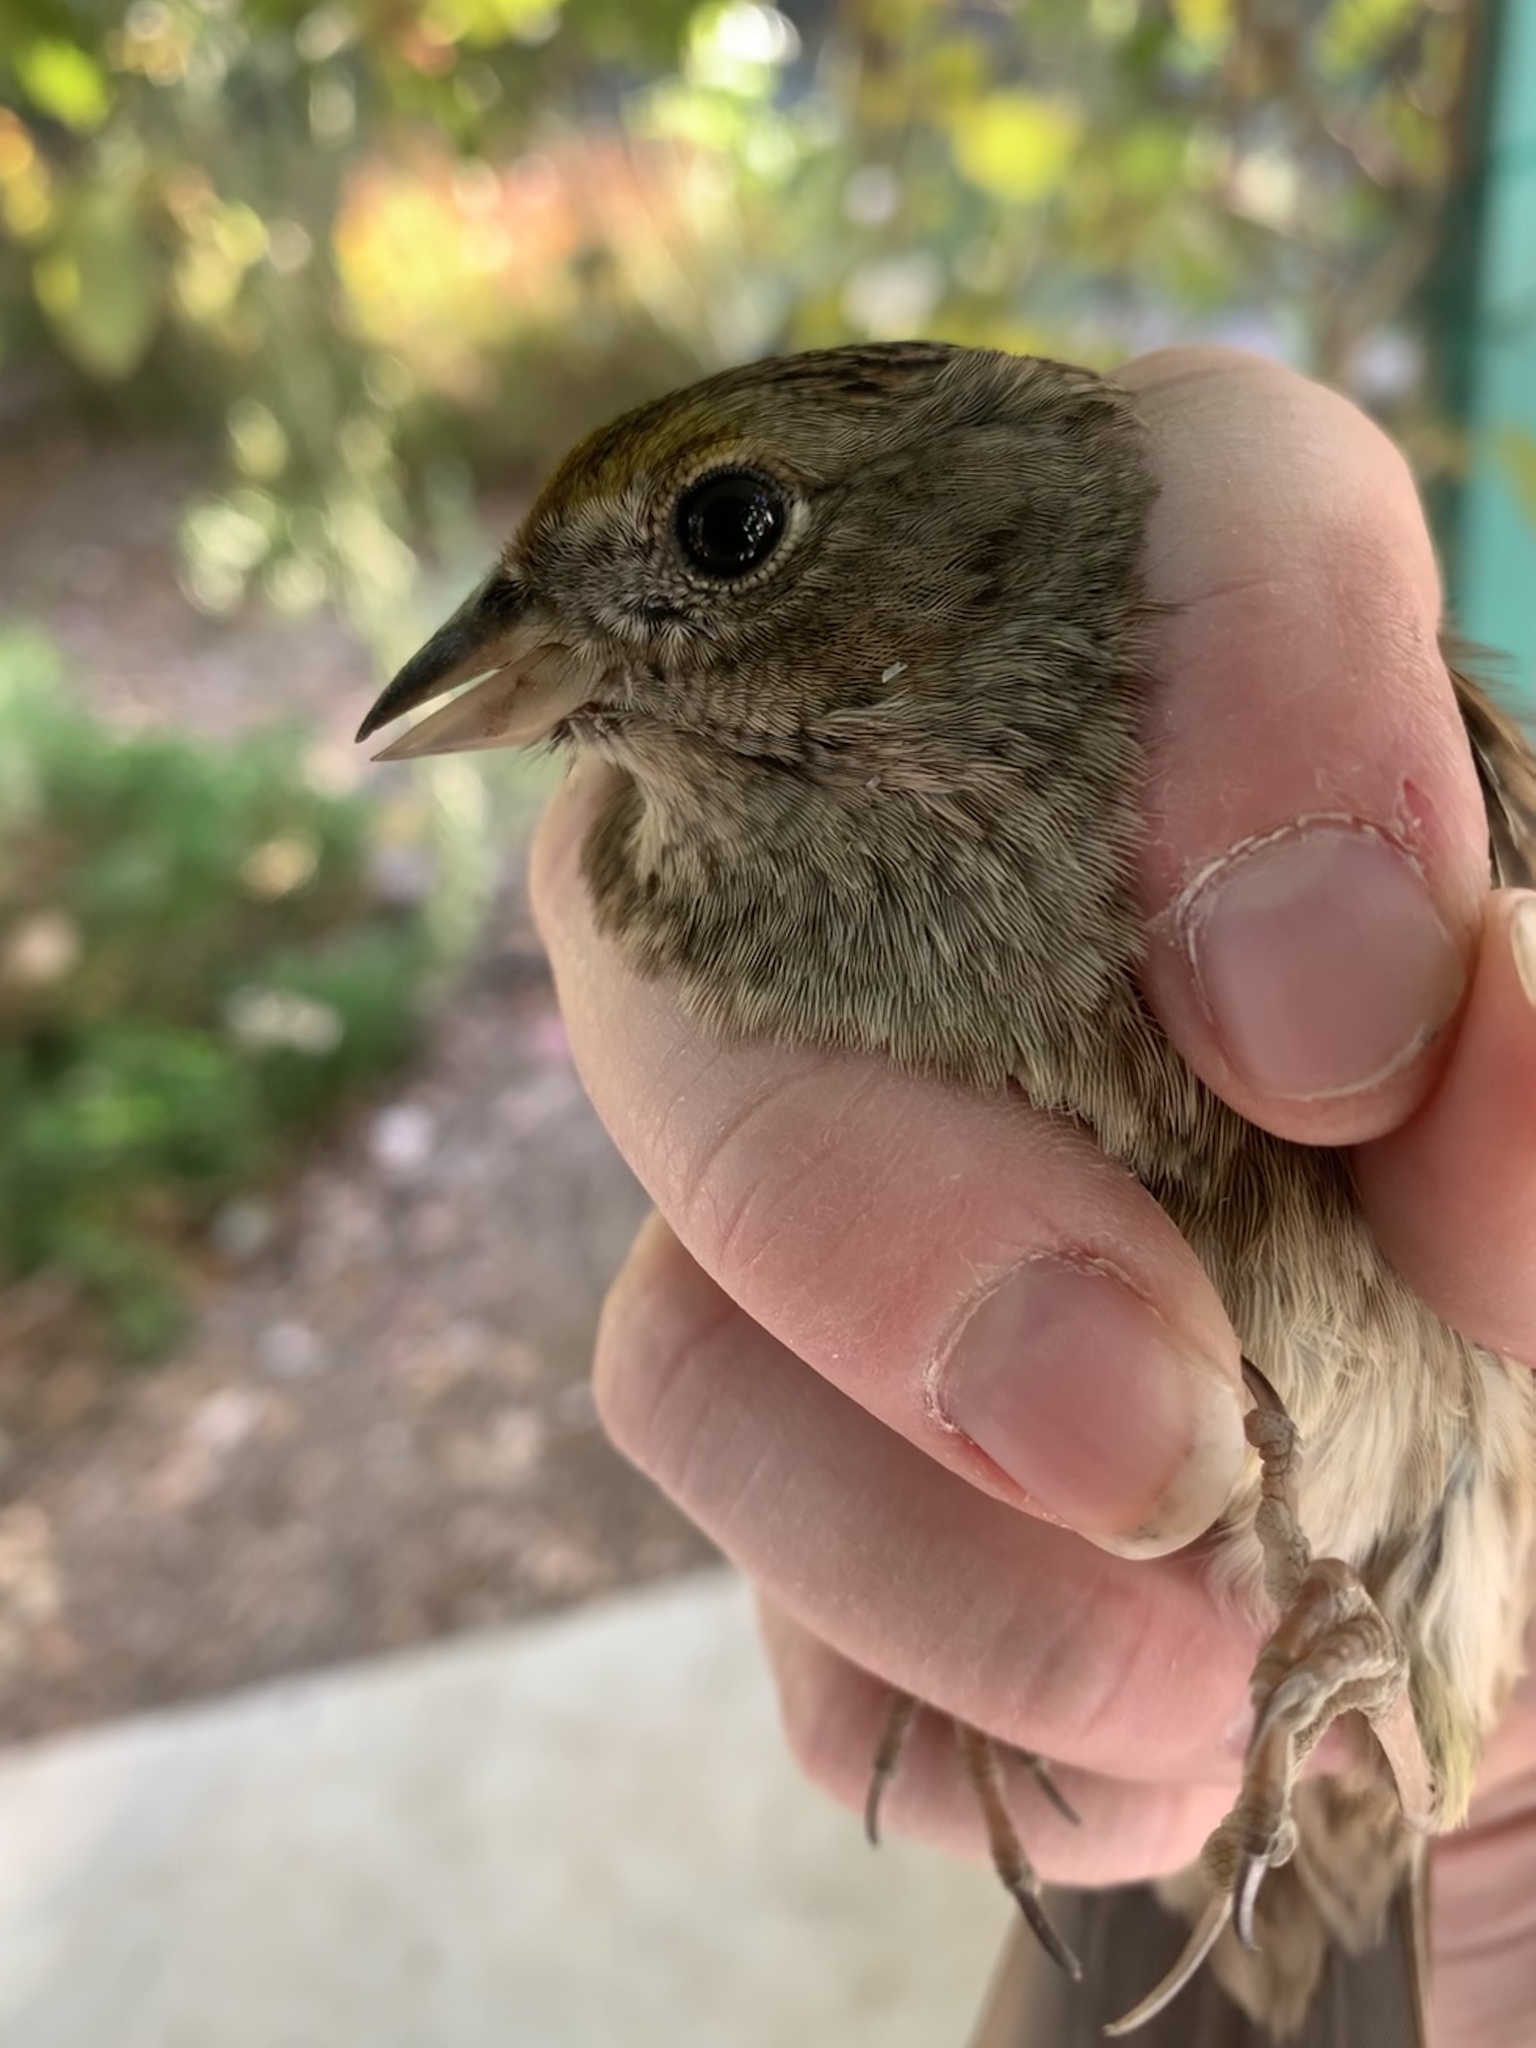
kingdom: Animalia
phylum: Chordata
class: Aves
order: Passeriformes
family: Passerellidae
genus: Zonotrichia
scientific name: Zonotrichia atricapilla
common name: Golden-crowned sparrow
